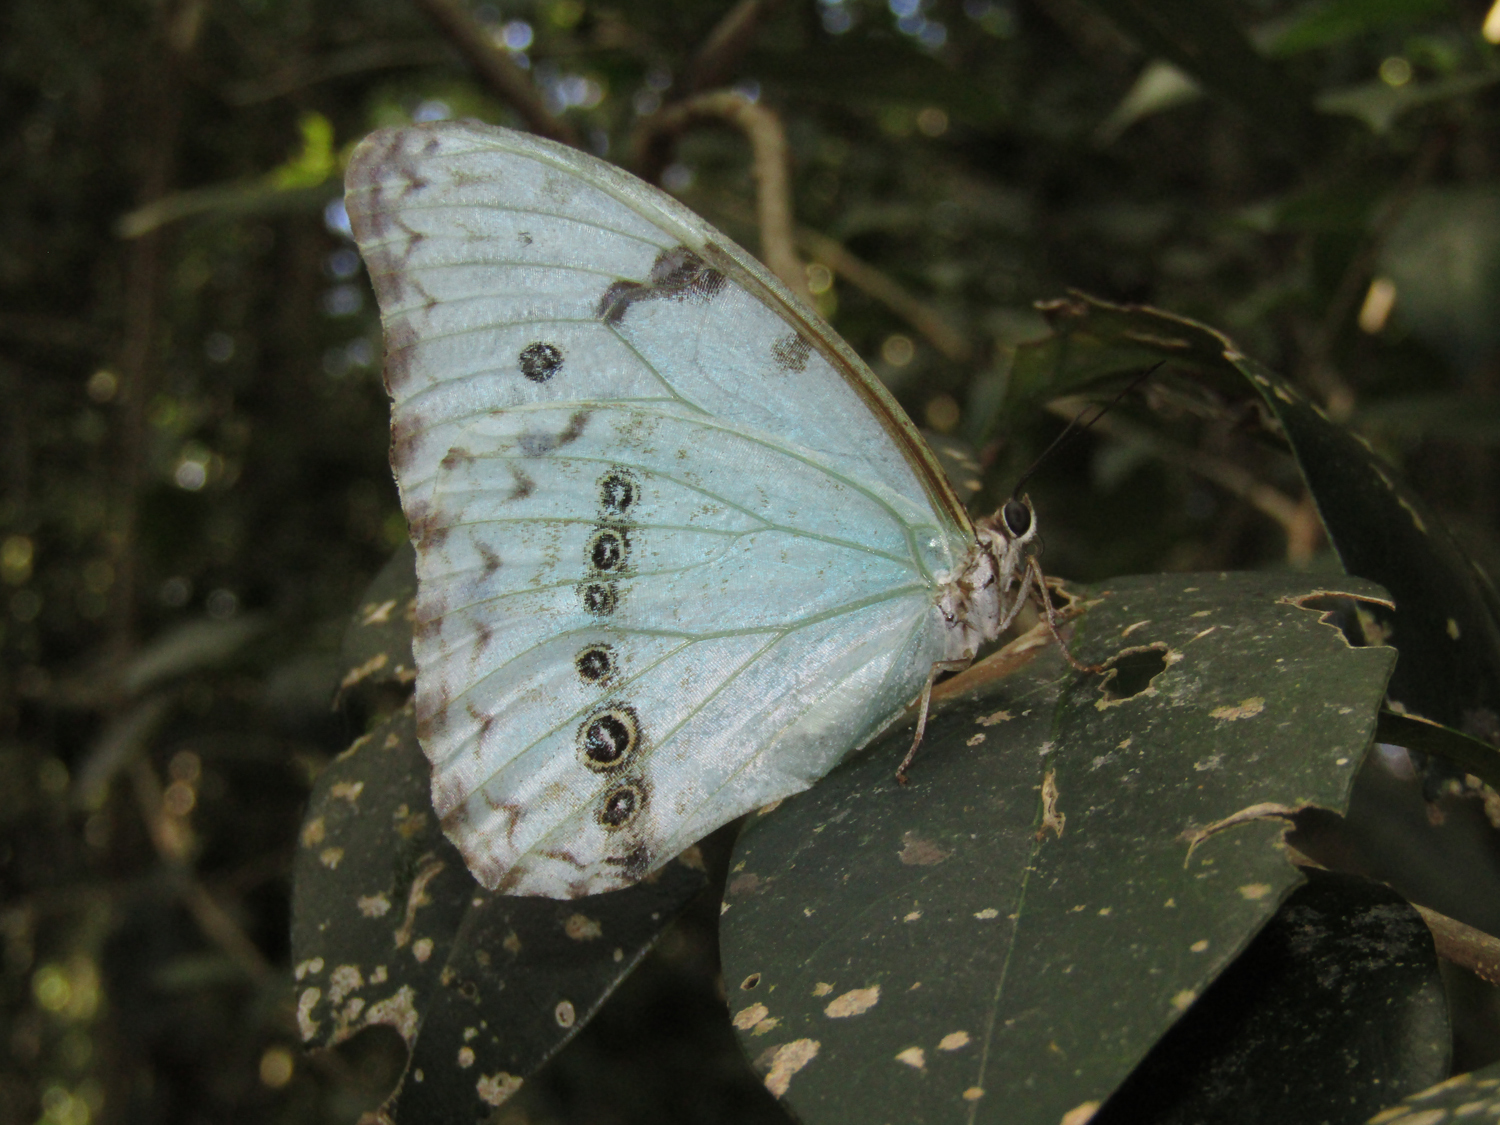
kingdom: Animalia
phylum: Arthropoda
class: Insecta
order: Lepidoptera
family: Nymphalidae
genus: Morpho
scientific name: Morpho epistrophus
